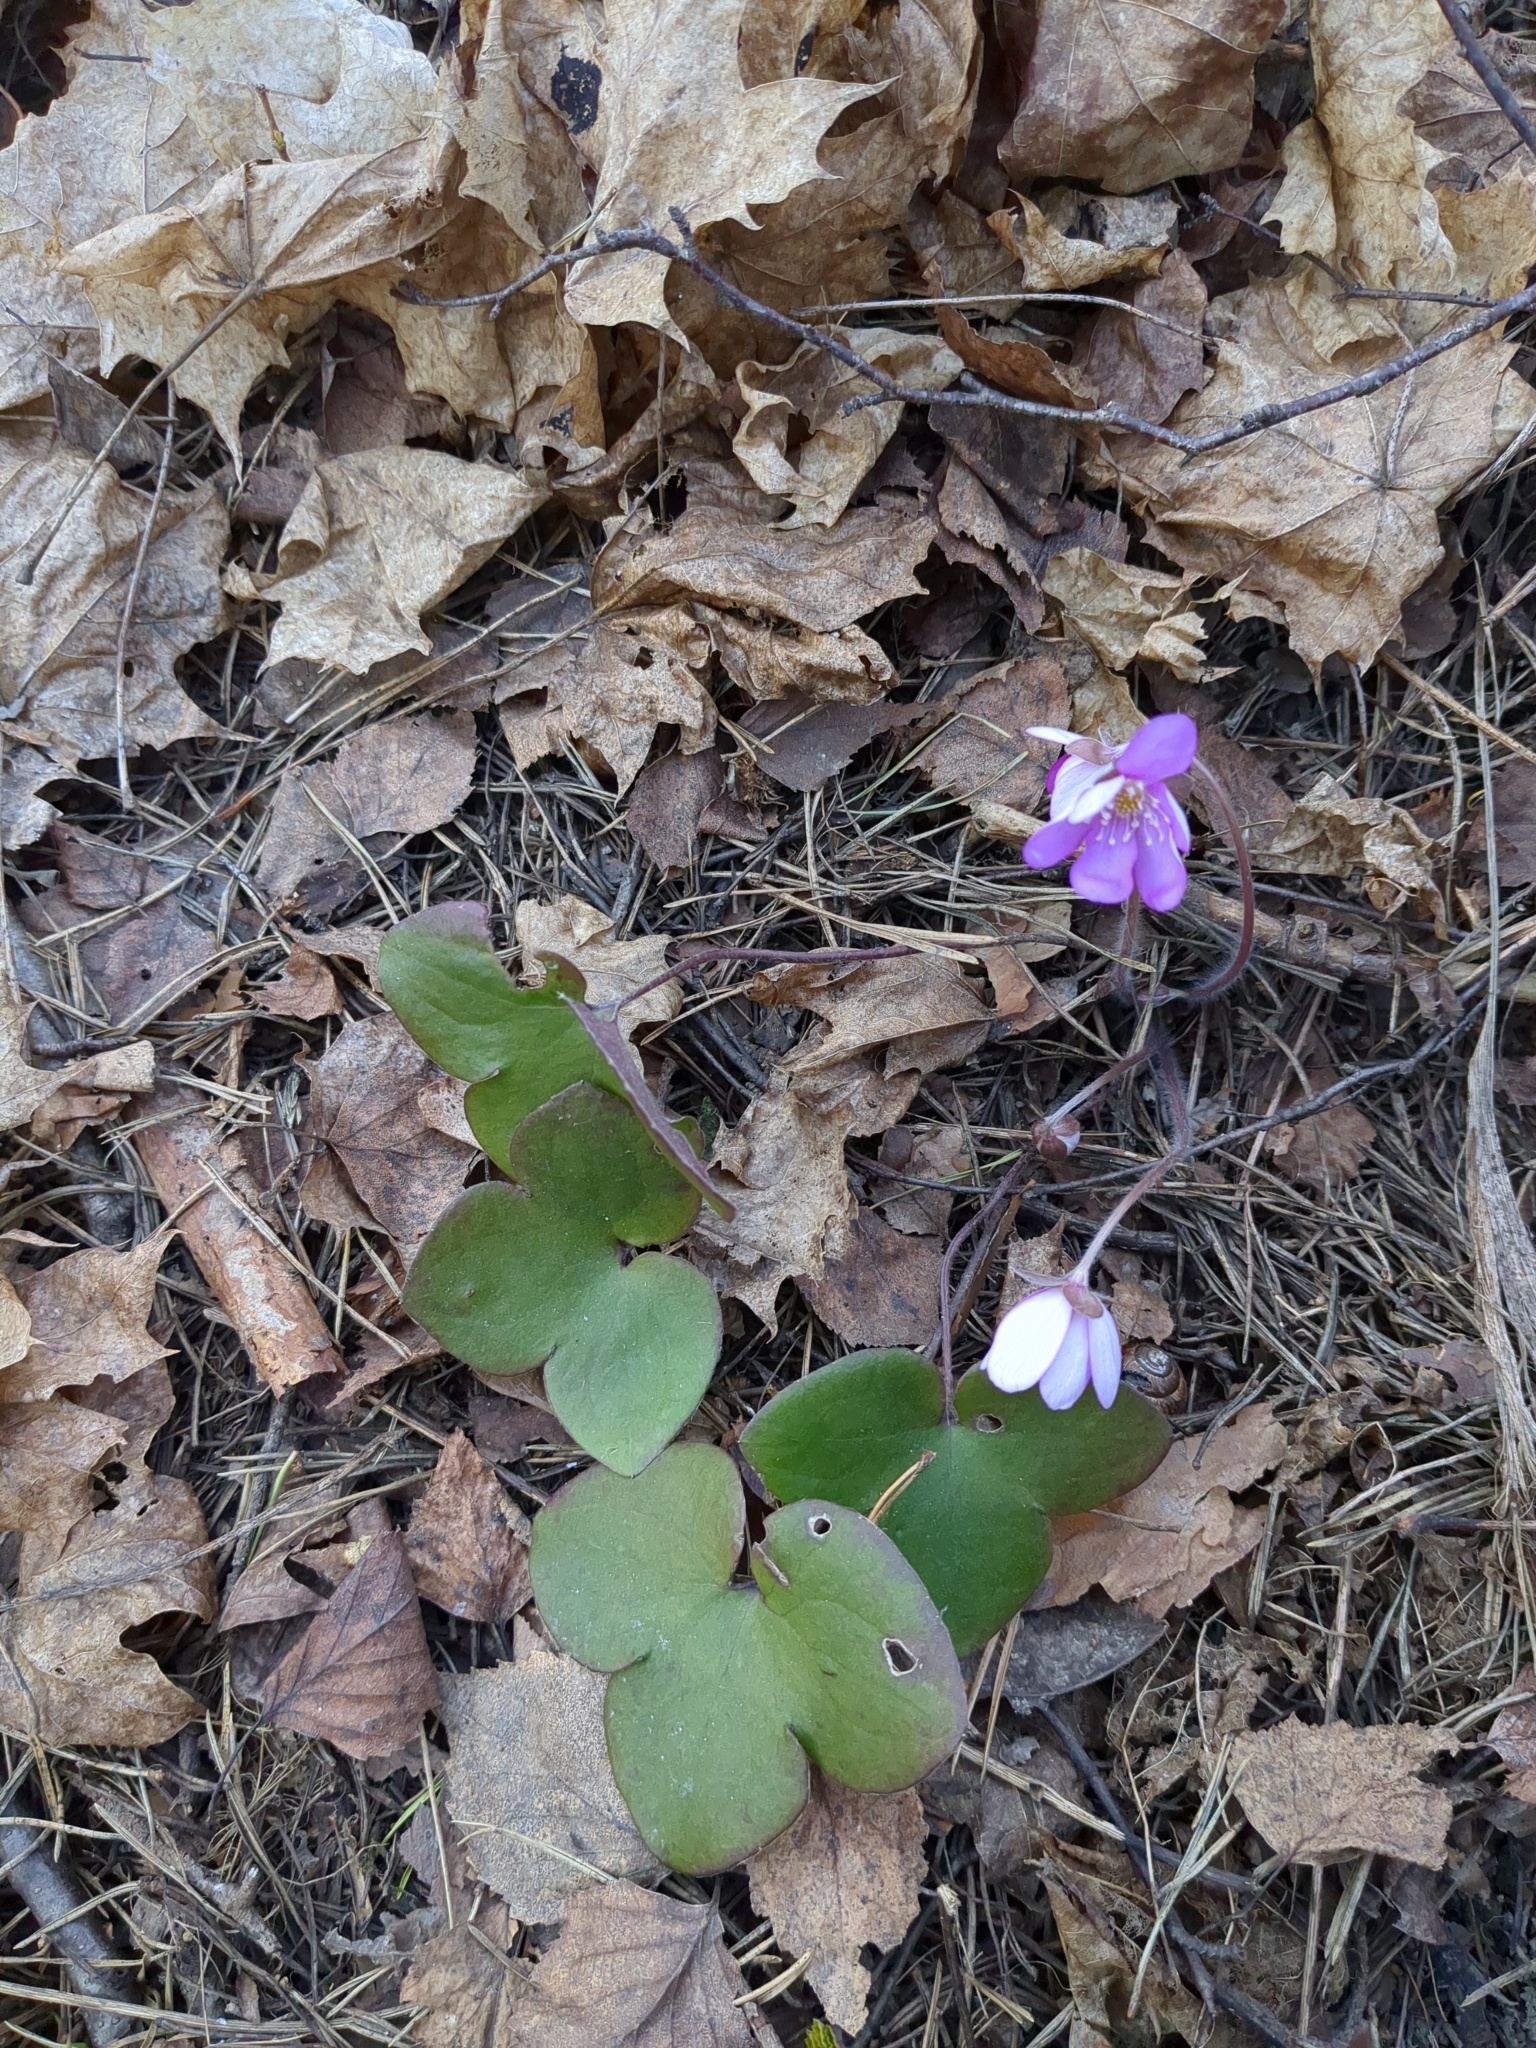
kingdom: Plantae
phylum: Tracheophyta
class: Magnoliopsida
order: Ranunculales
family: Ranunculaceae
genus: Hepatica
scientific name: Hepatica nobilis
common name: Liverleaf
